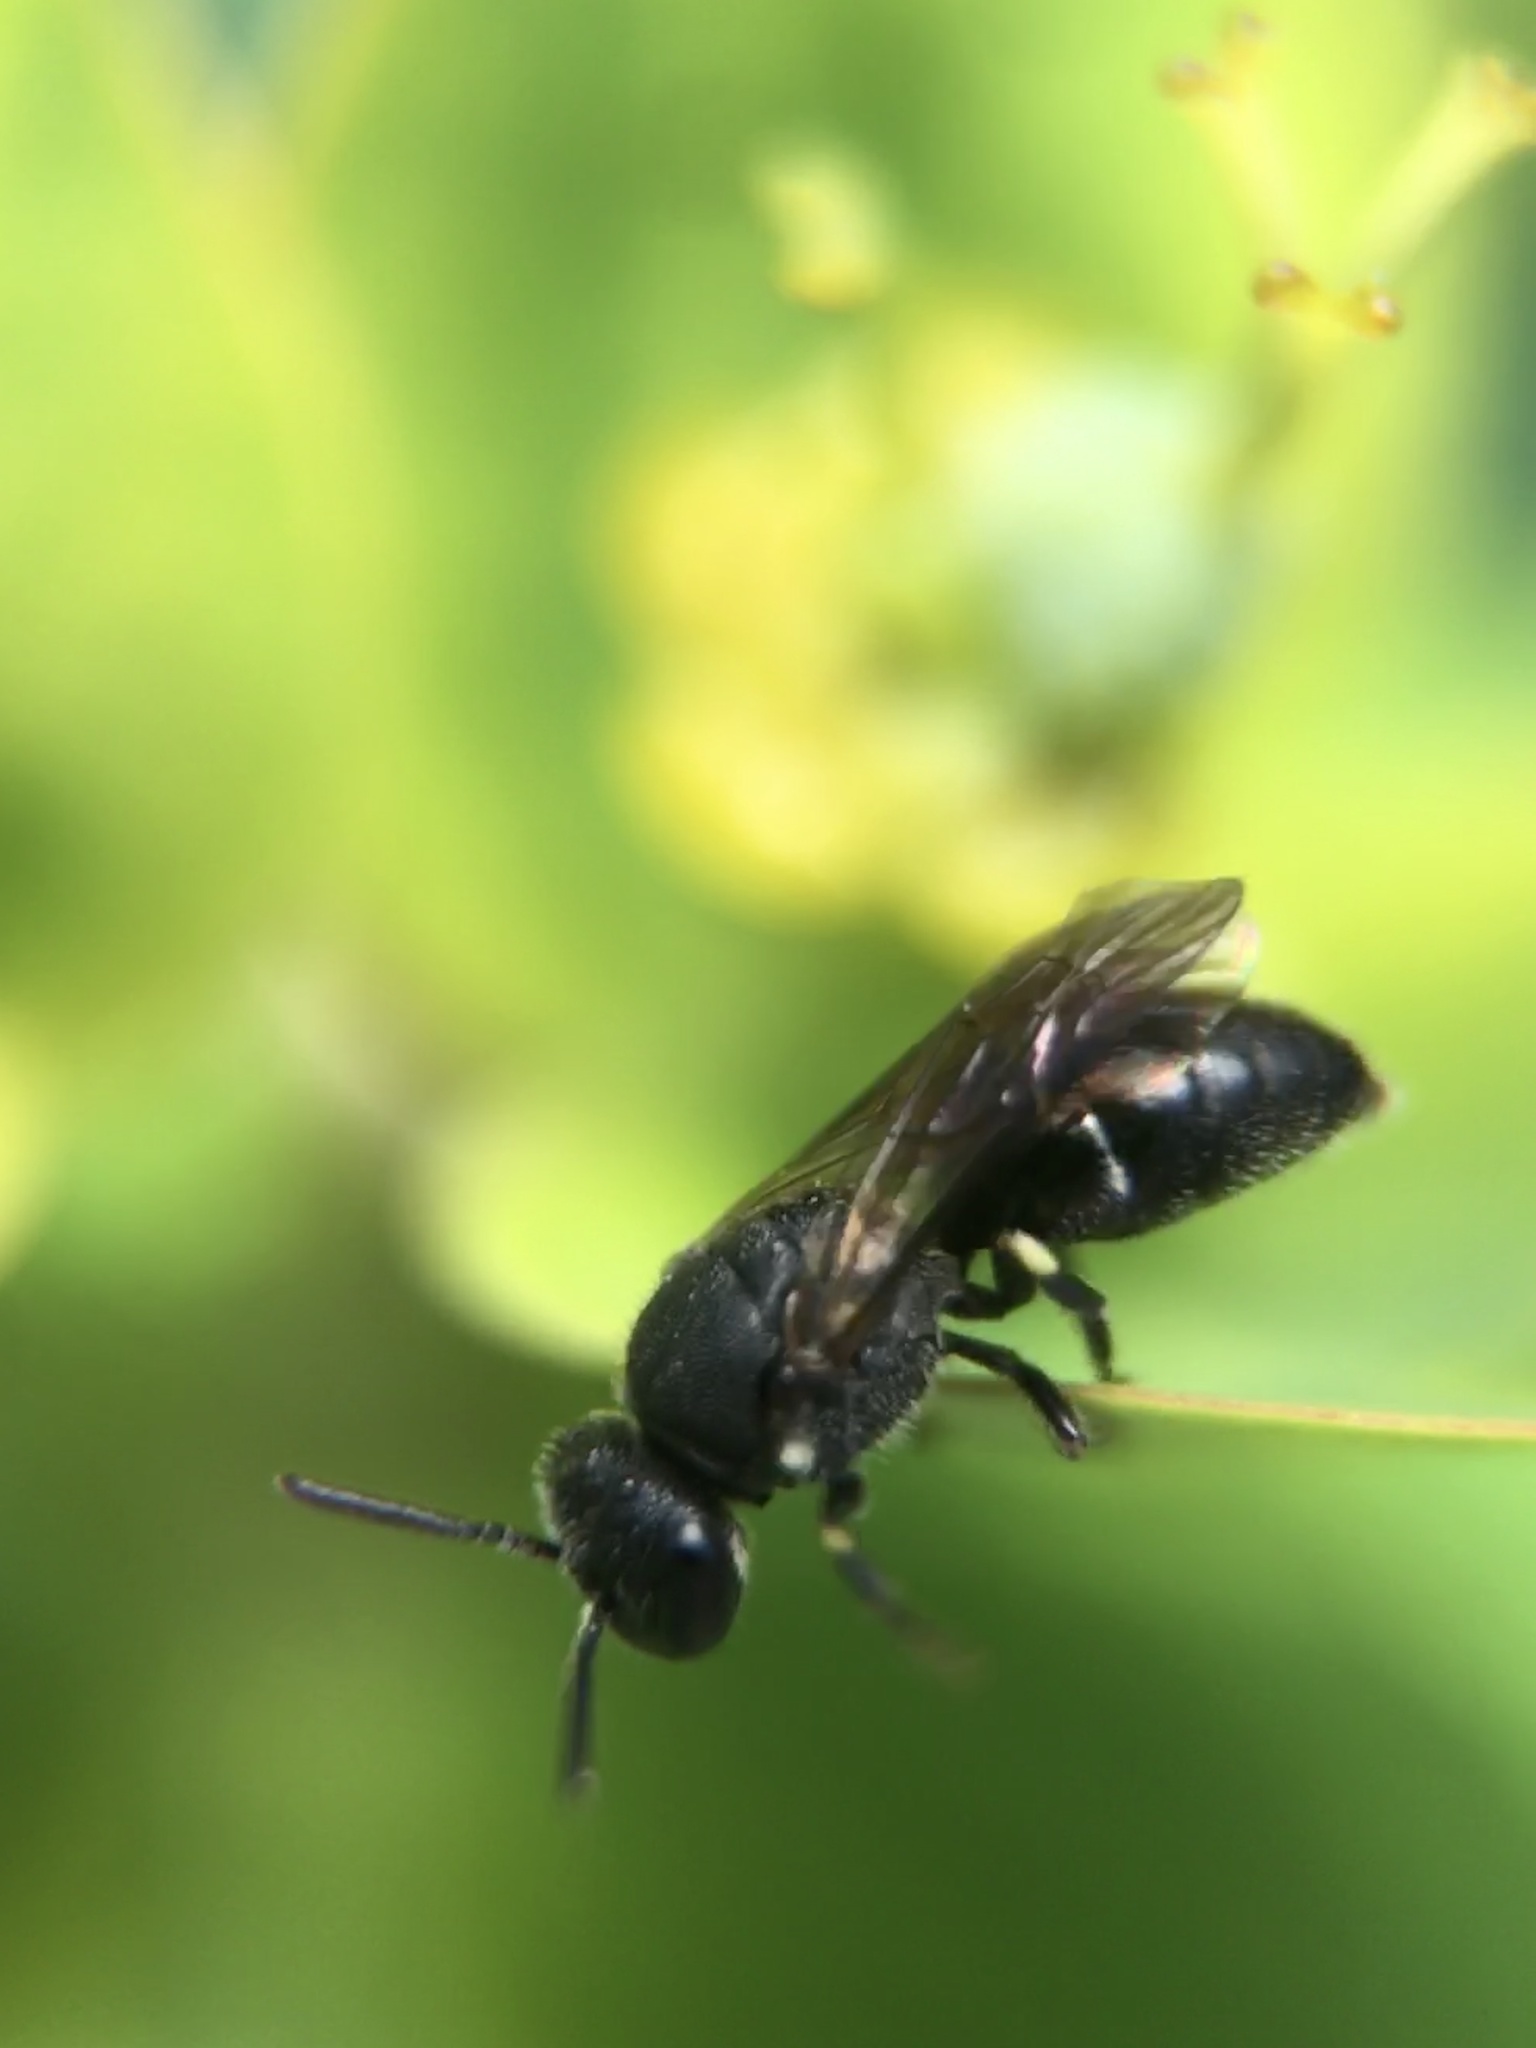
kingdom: Animalia
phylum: Arthropoda
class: Insecta
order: Hymenoptera
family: Colletidae
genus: Hylaeus
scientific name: Hylaeus
